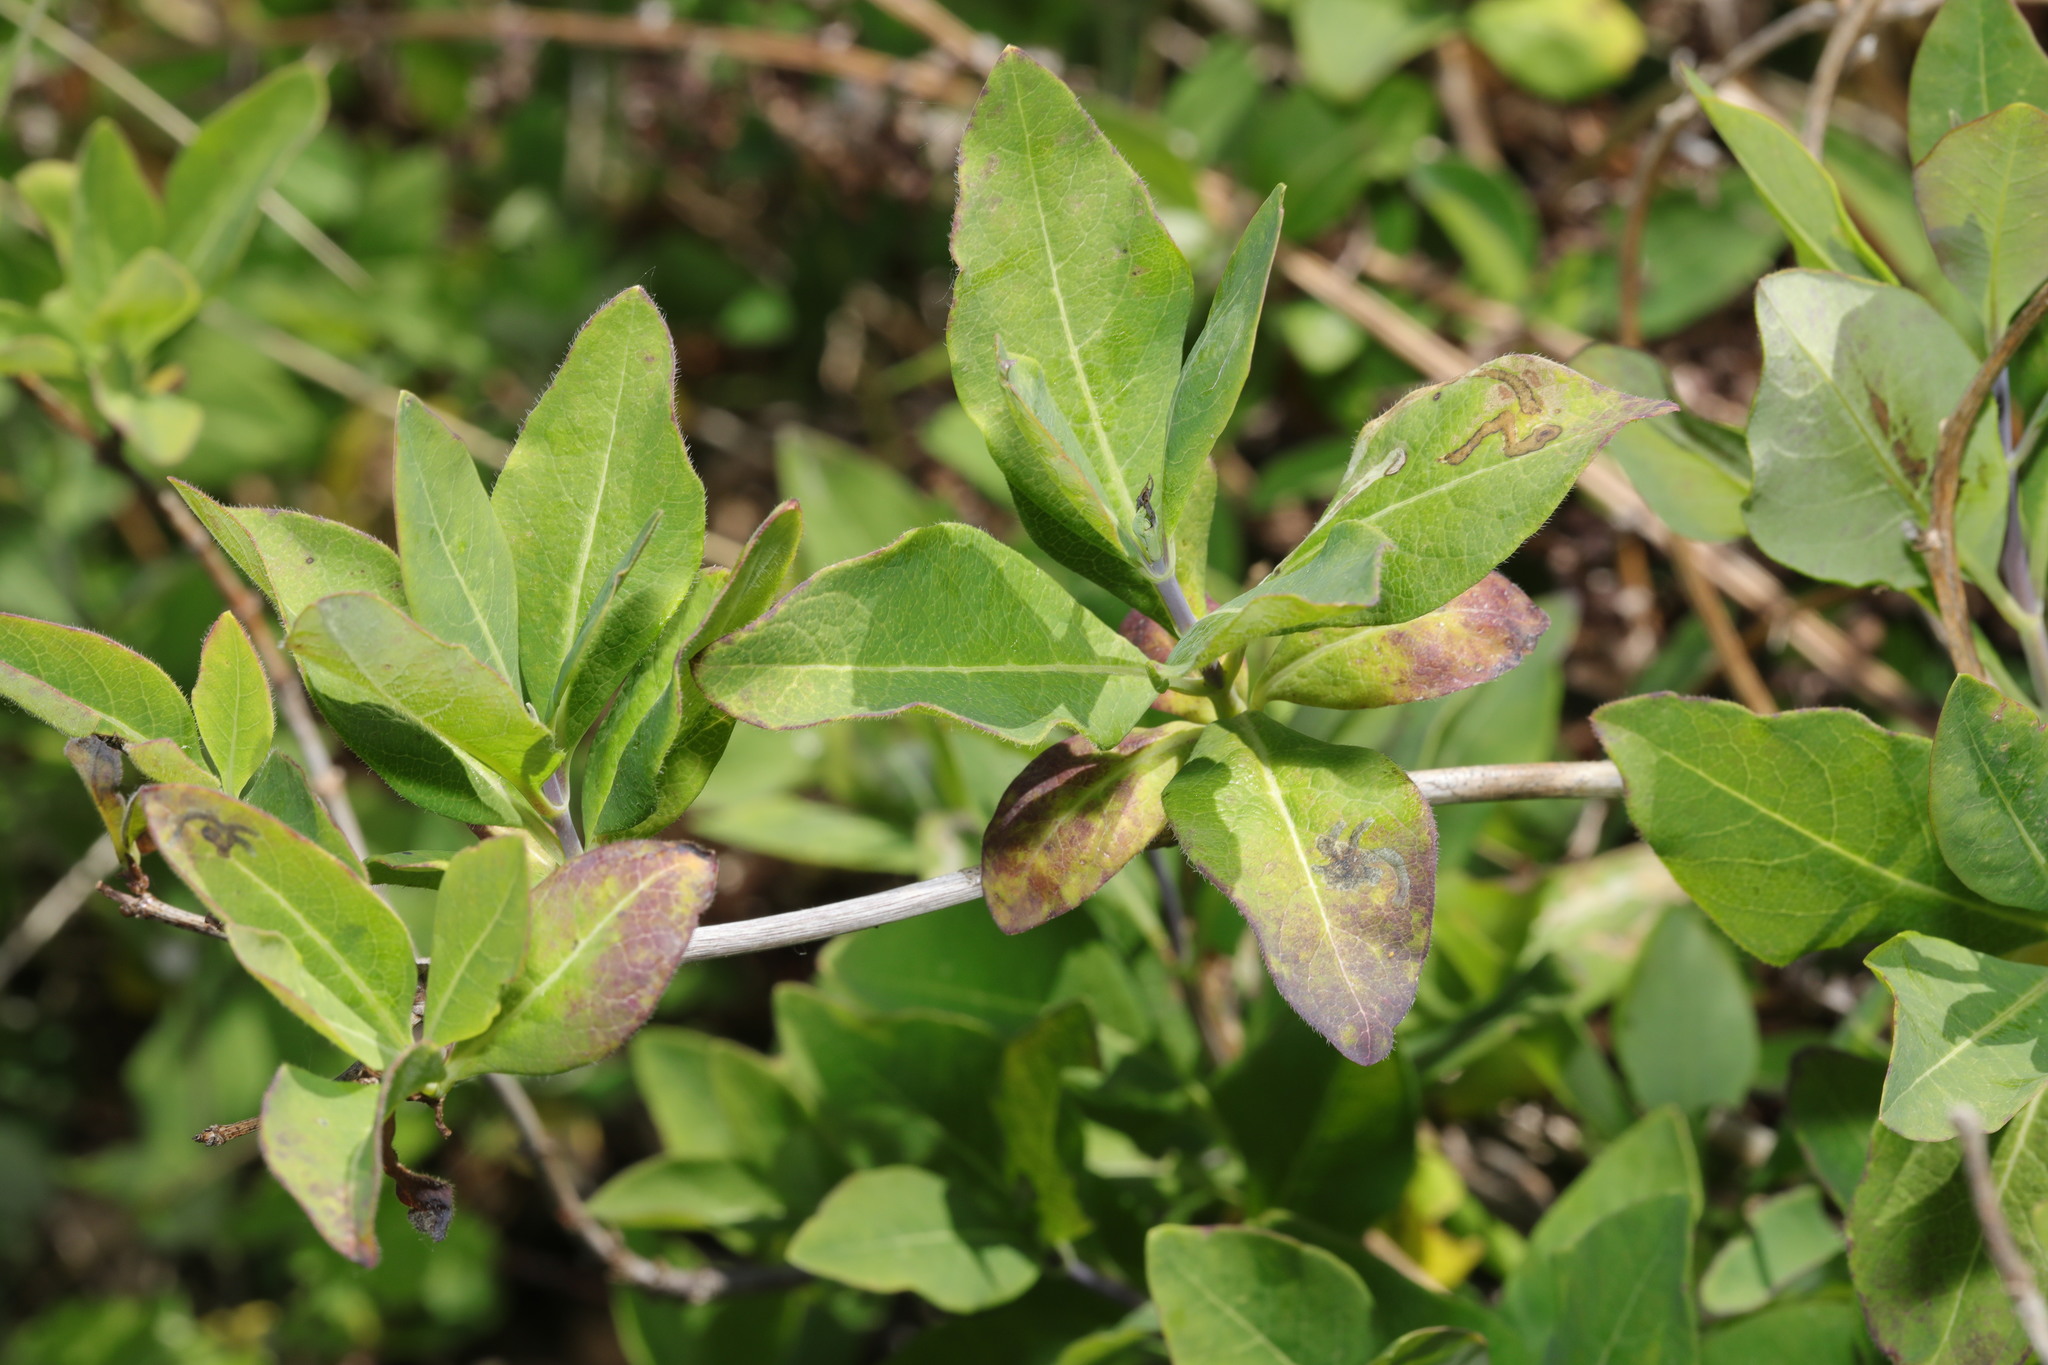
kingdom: Plantae
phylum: Tracheophyta
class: Magnoliopsida
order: Dipsacales
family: Caprifoliaceae
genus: Lonicera
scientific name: Lonicera periclymenum
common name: European honeysuckle
